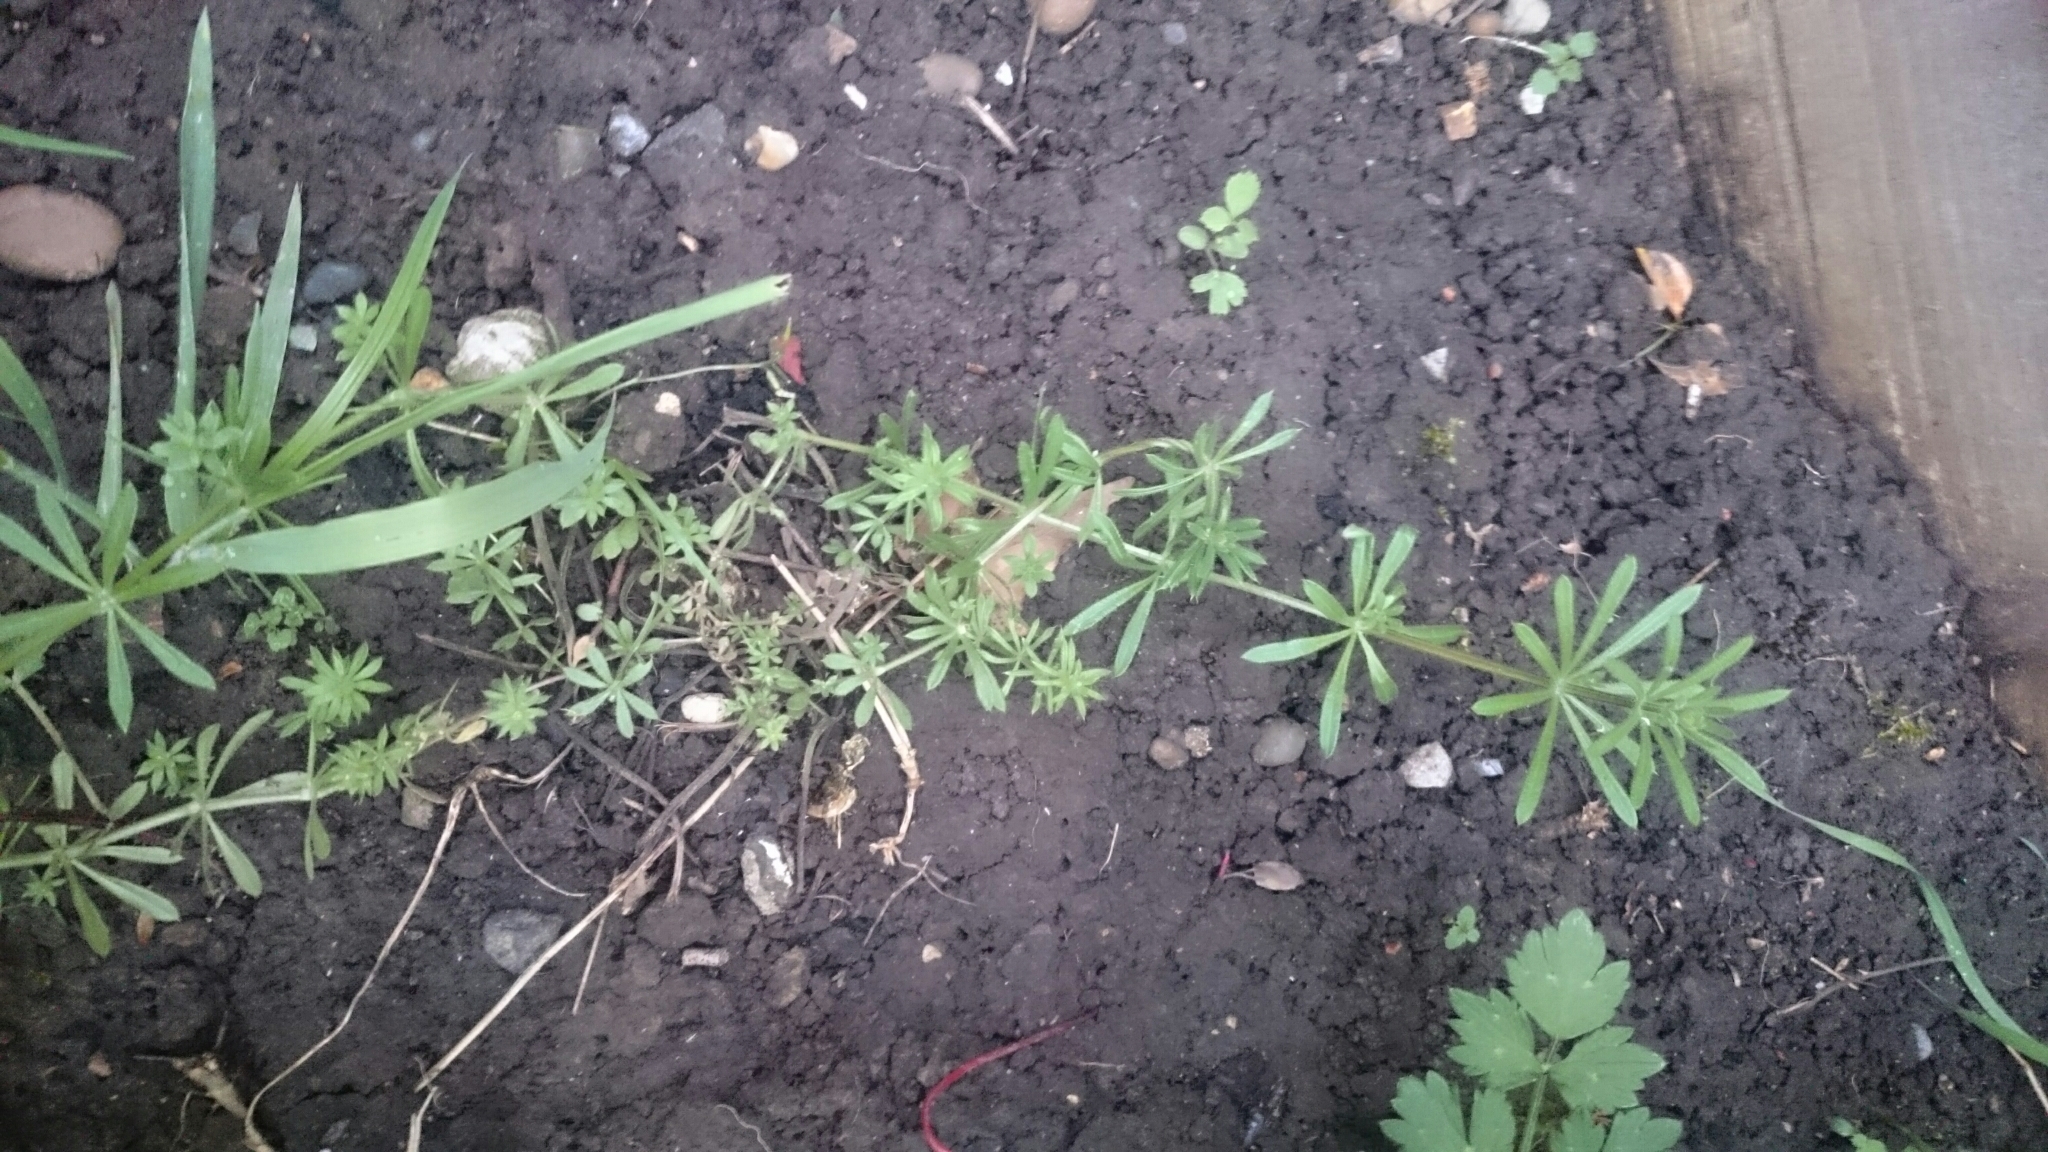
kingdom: Plantae
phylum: Tracheophyta
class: Magnoliopsida
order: Gentianales
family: Rubiaceae
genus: Galium
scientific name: Galium aparine
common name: Cleavers
